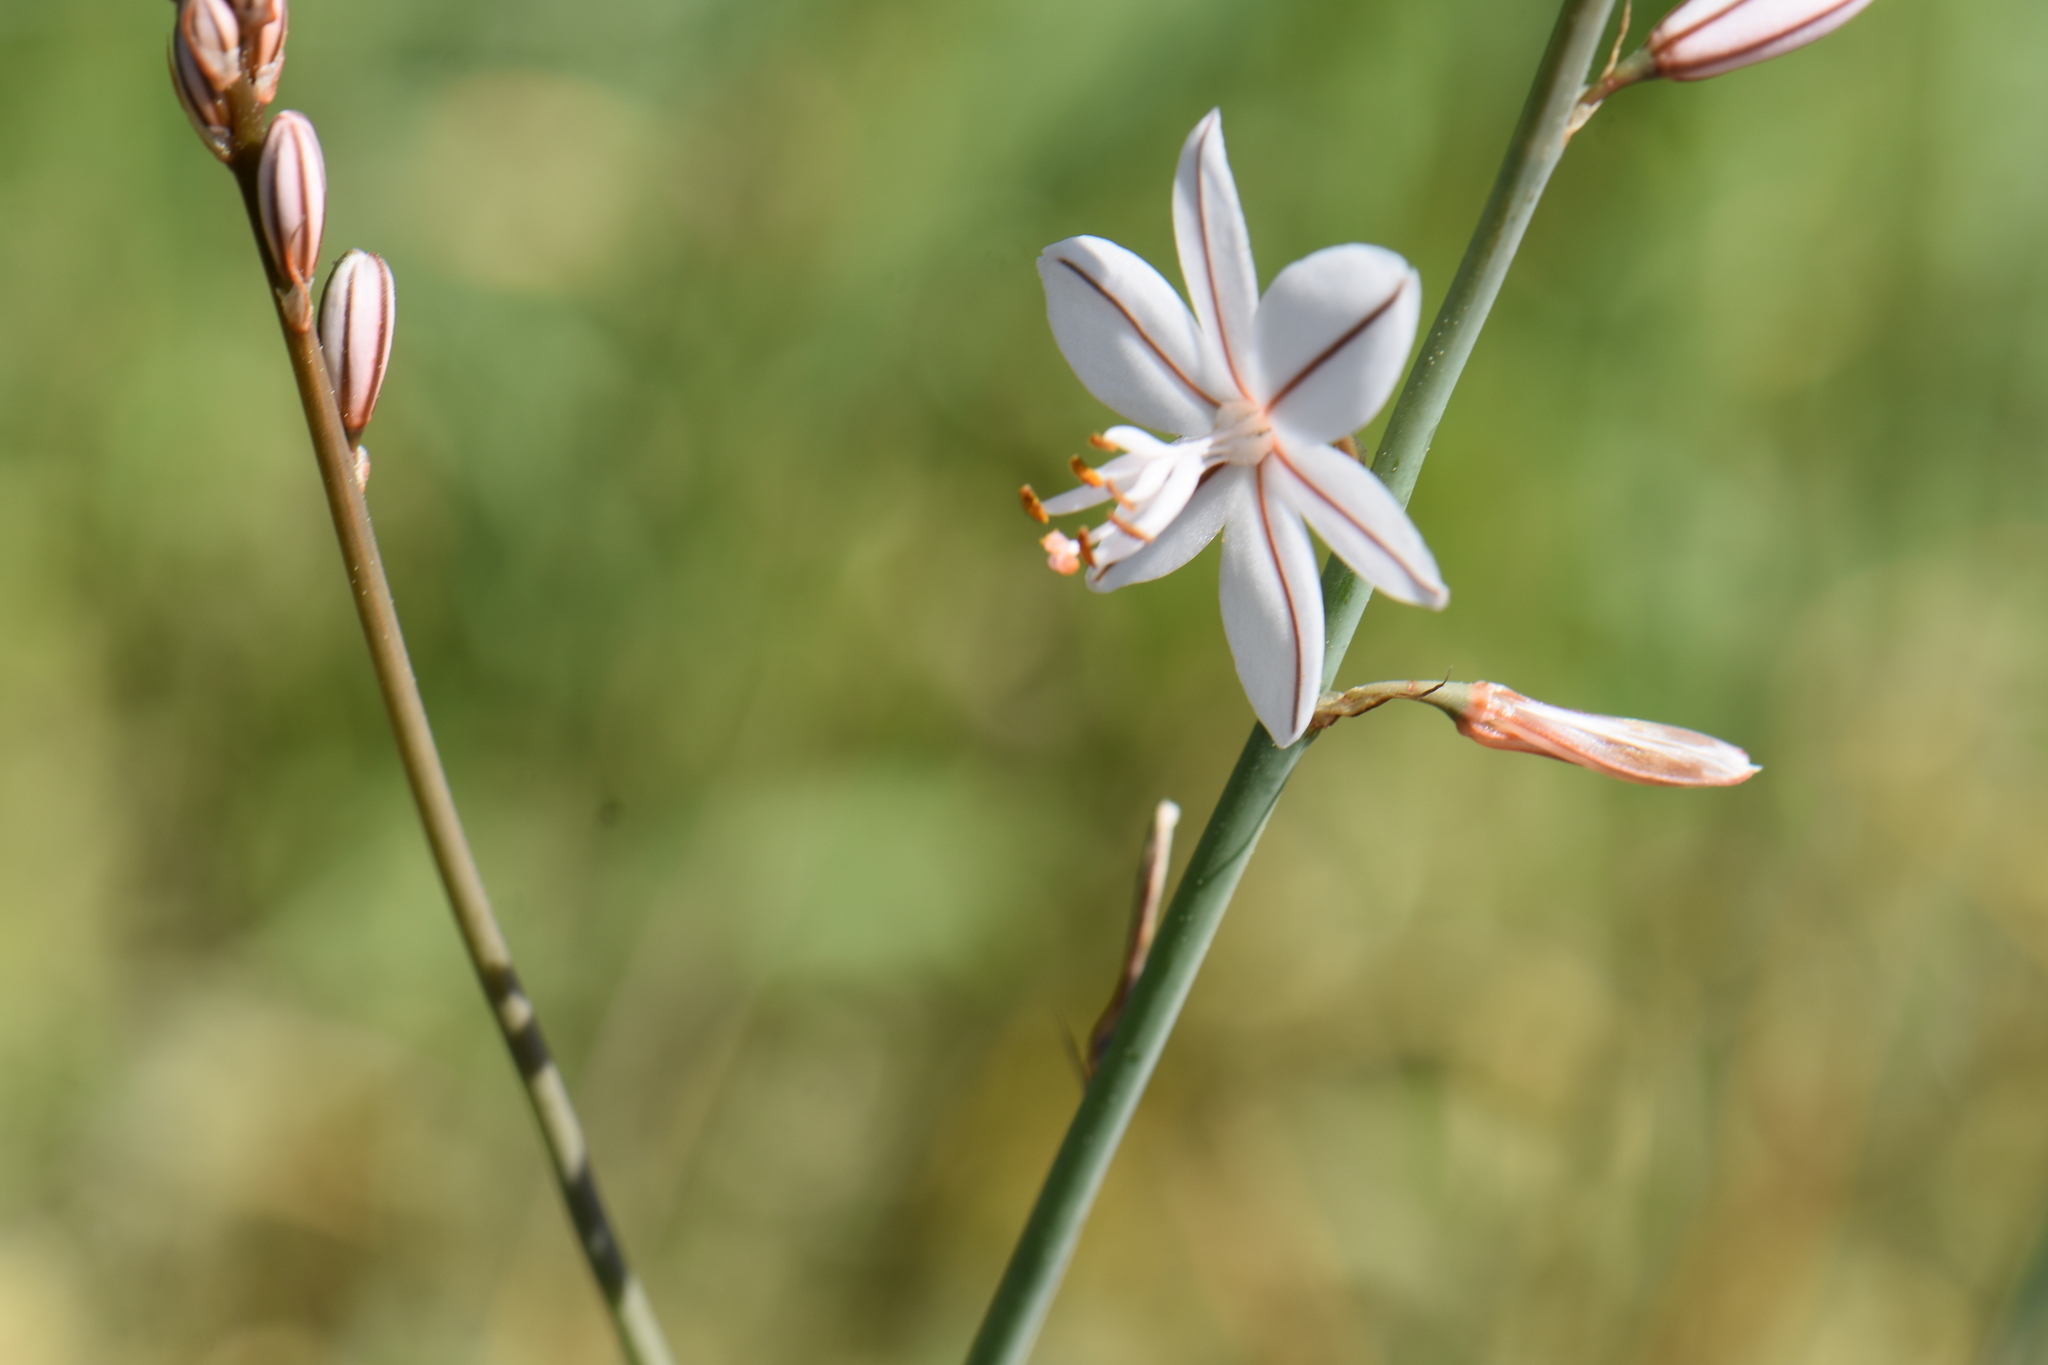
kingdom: Plantae
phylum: Tracheophyta
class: Liliopsida
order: Asparagales
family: Asphodelaceae
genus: Asphodelus
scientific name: Asphodelus fistulosus
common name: Onionweed
